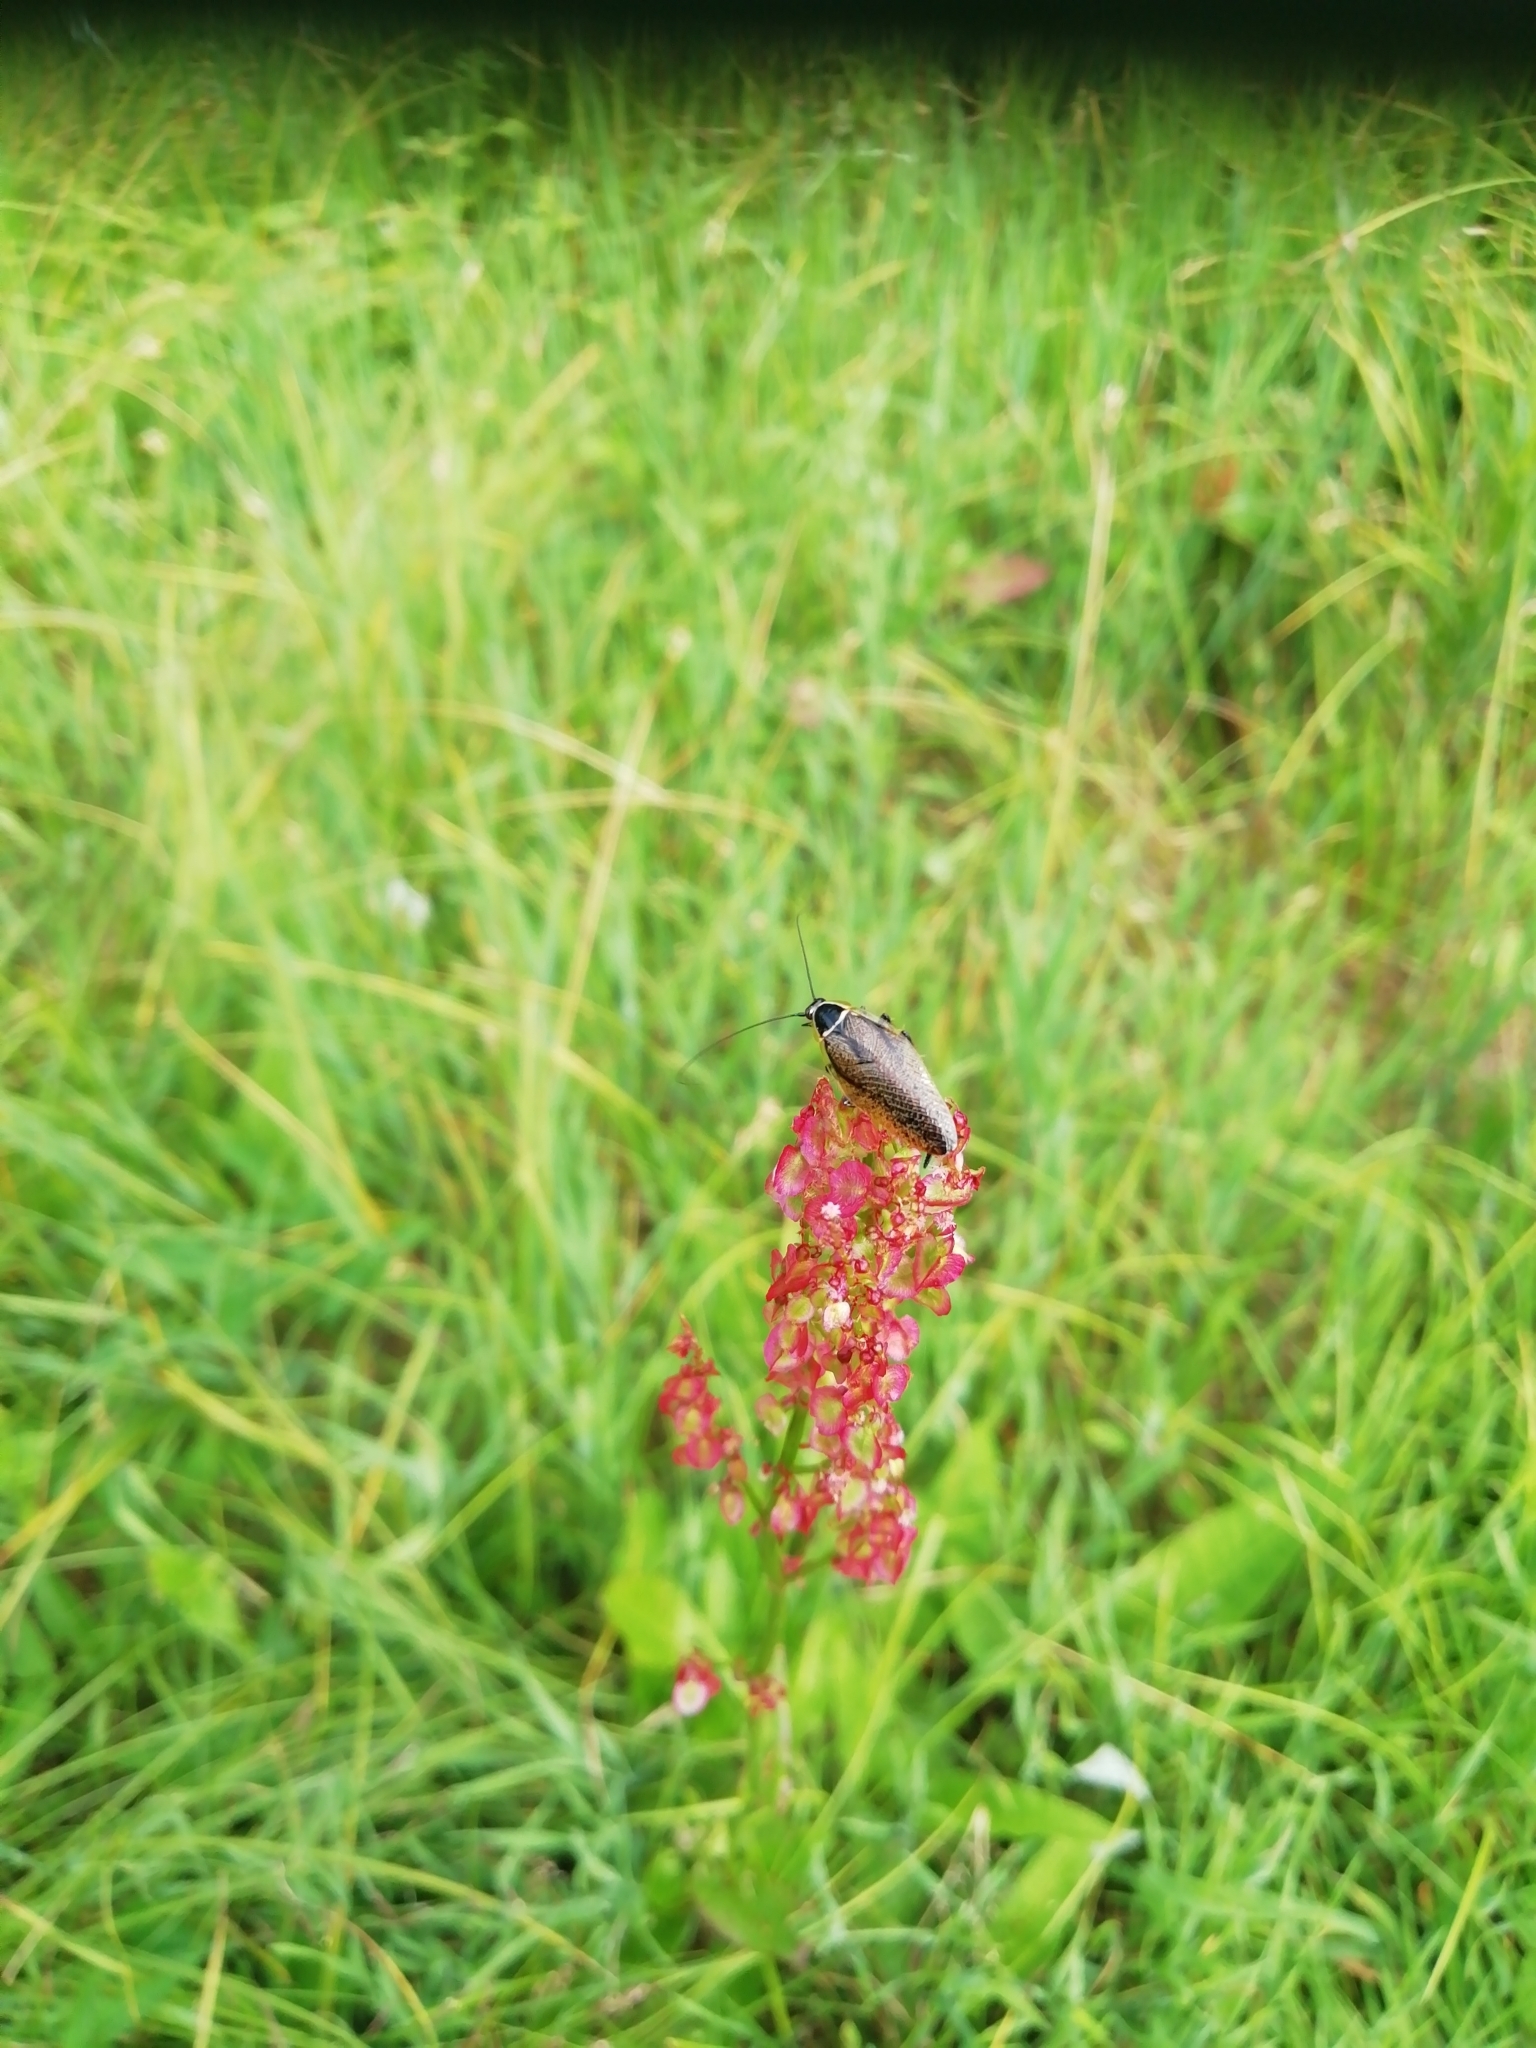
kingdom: Animalia
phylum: Arthropoda
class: Insecta
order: Blattodea
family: Ectobiidae
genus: Ectobius
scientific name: Ectobius sylvestris
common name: Forest cockroach
